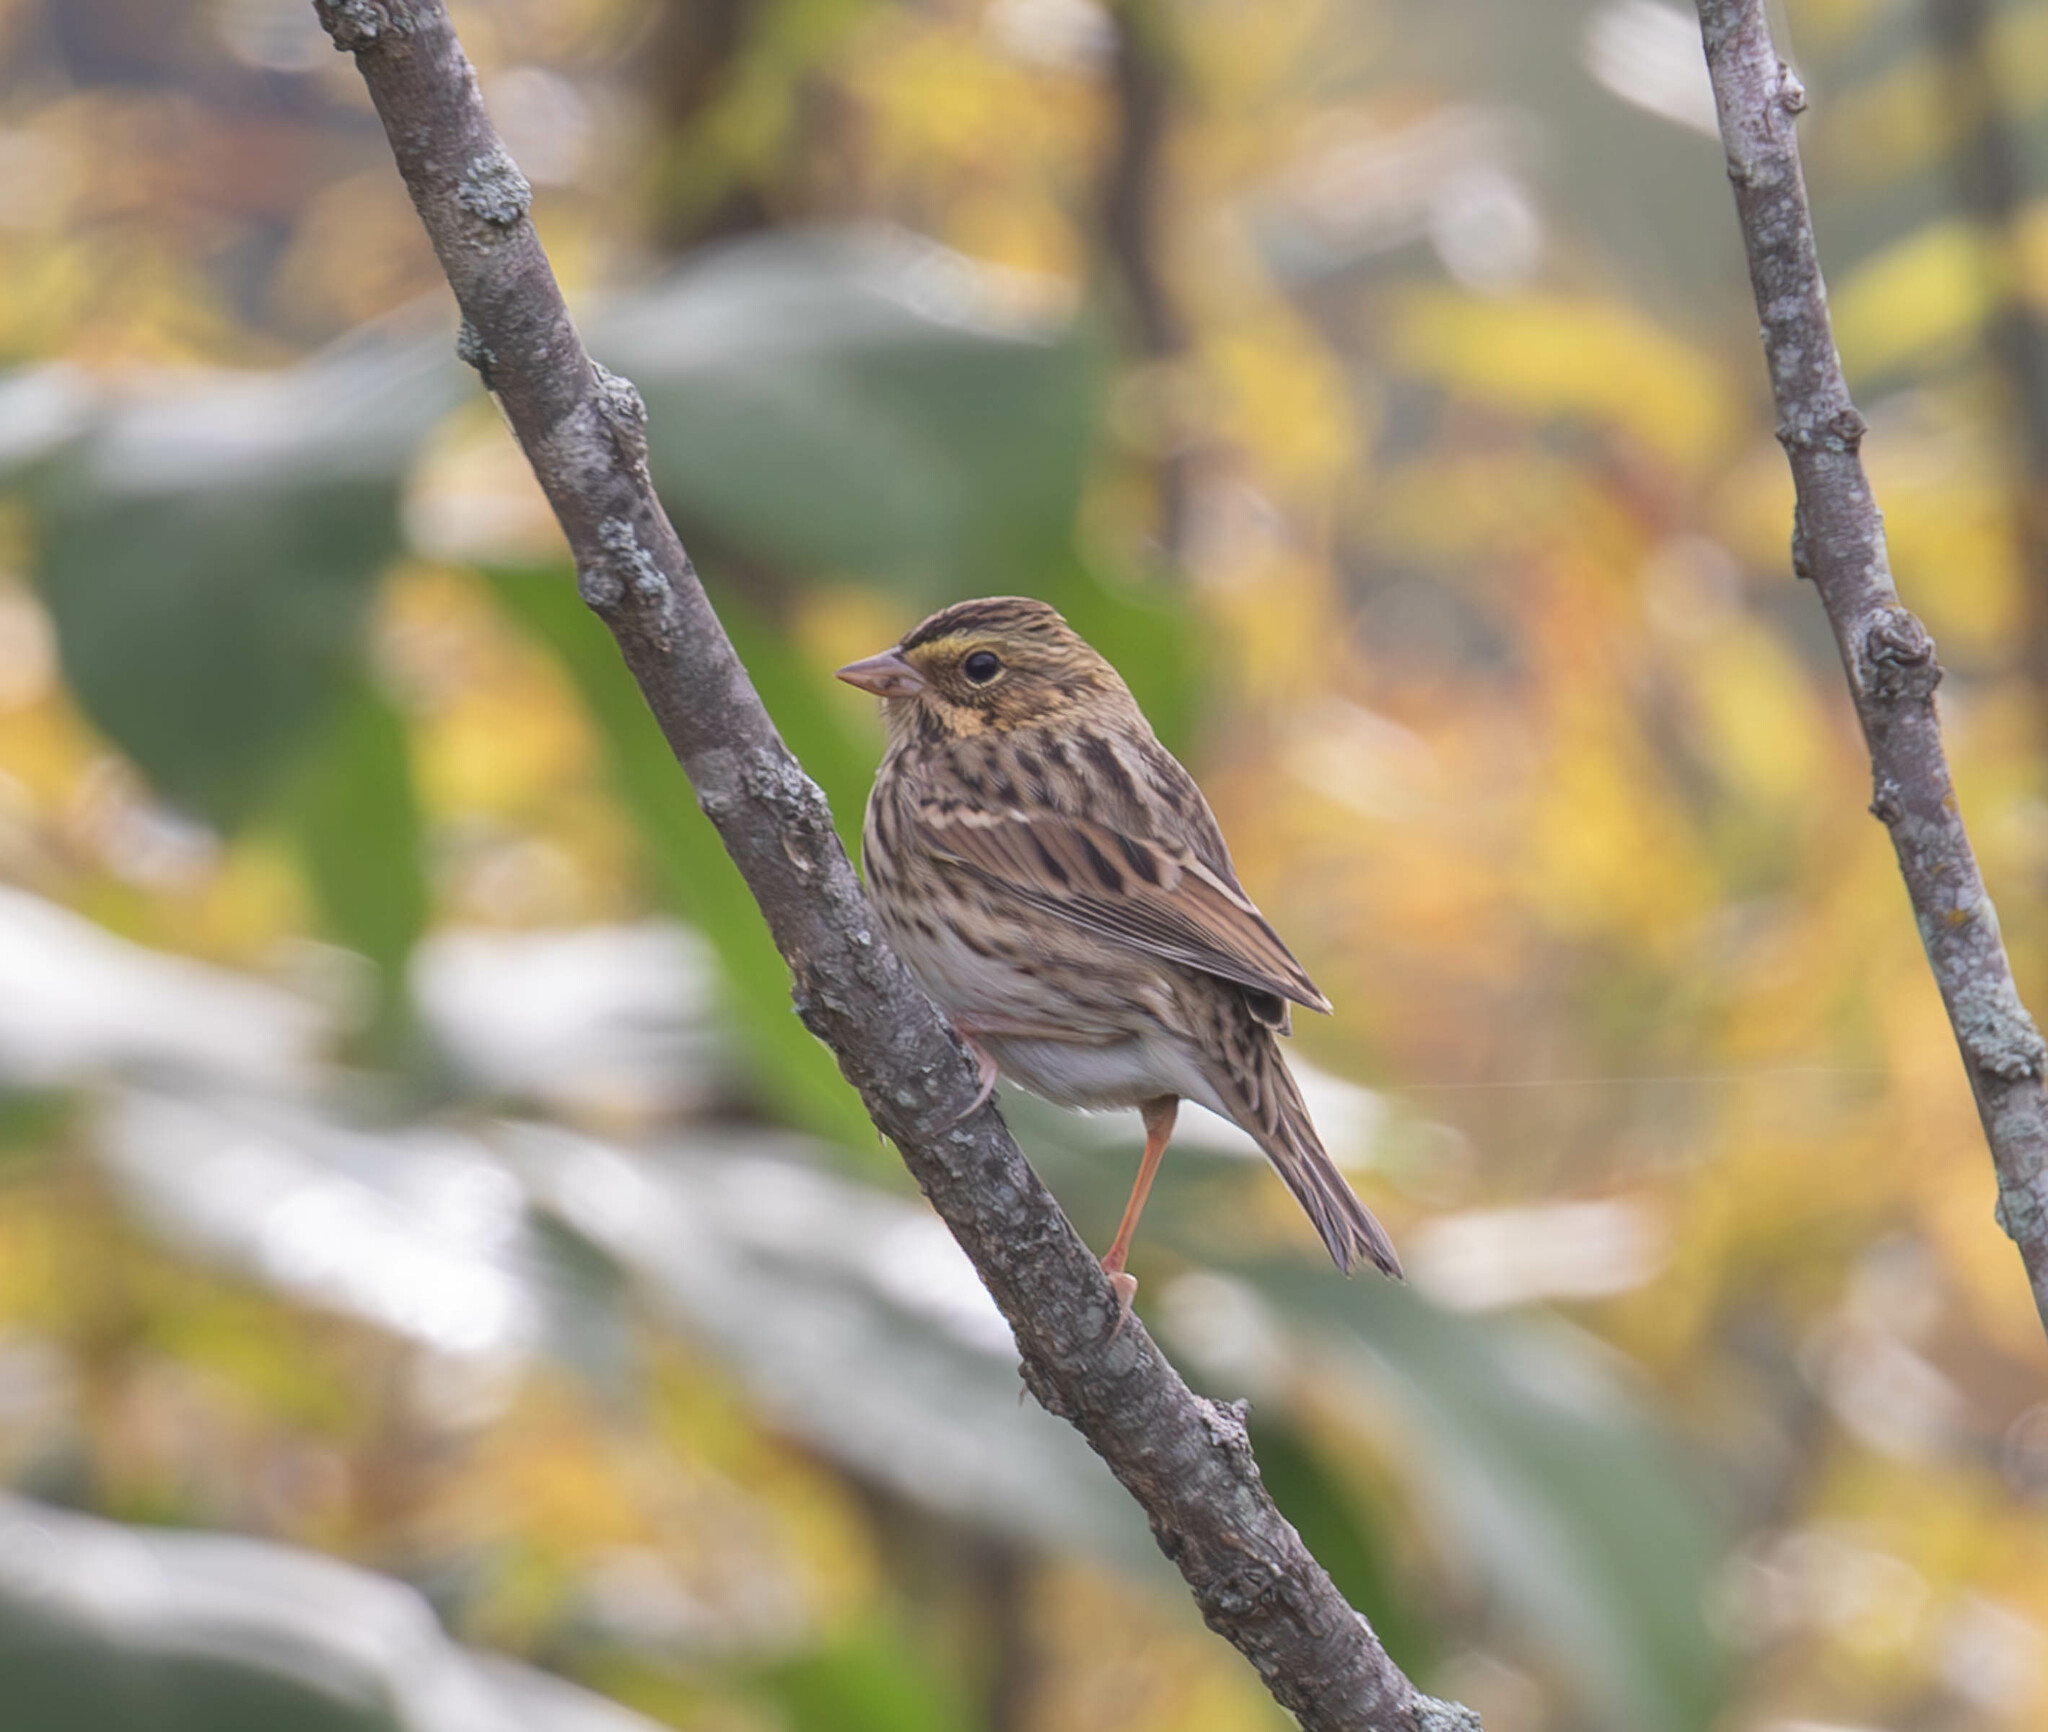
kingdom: Animalia
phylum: Chordata
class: Aves
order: Passeriformes
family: Passerellidae
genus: Passerculus
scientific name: Passerculus sandwichensis
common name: Savannah sparrow
